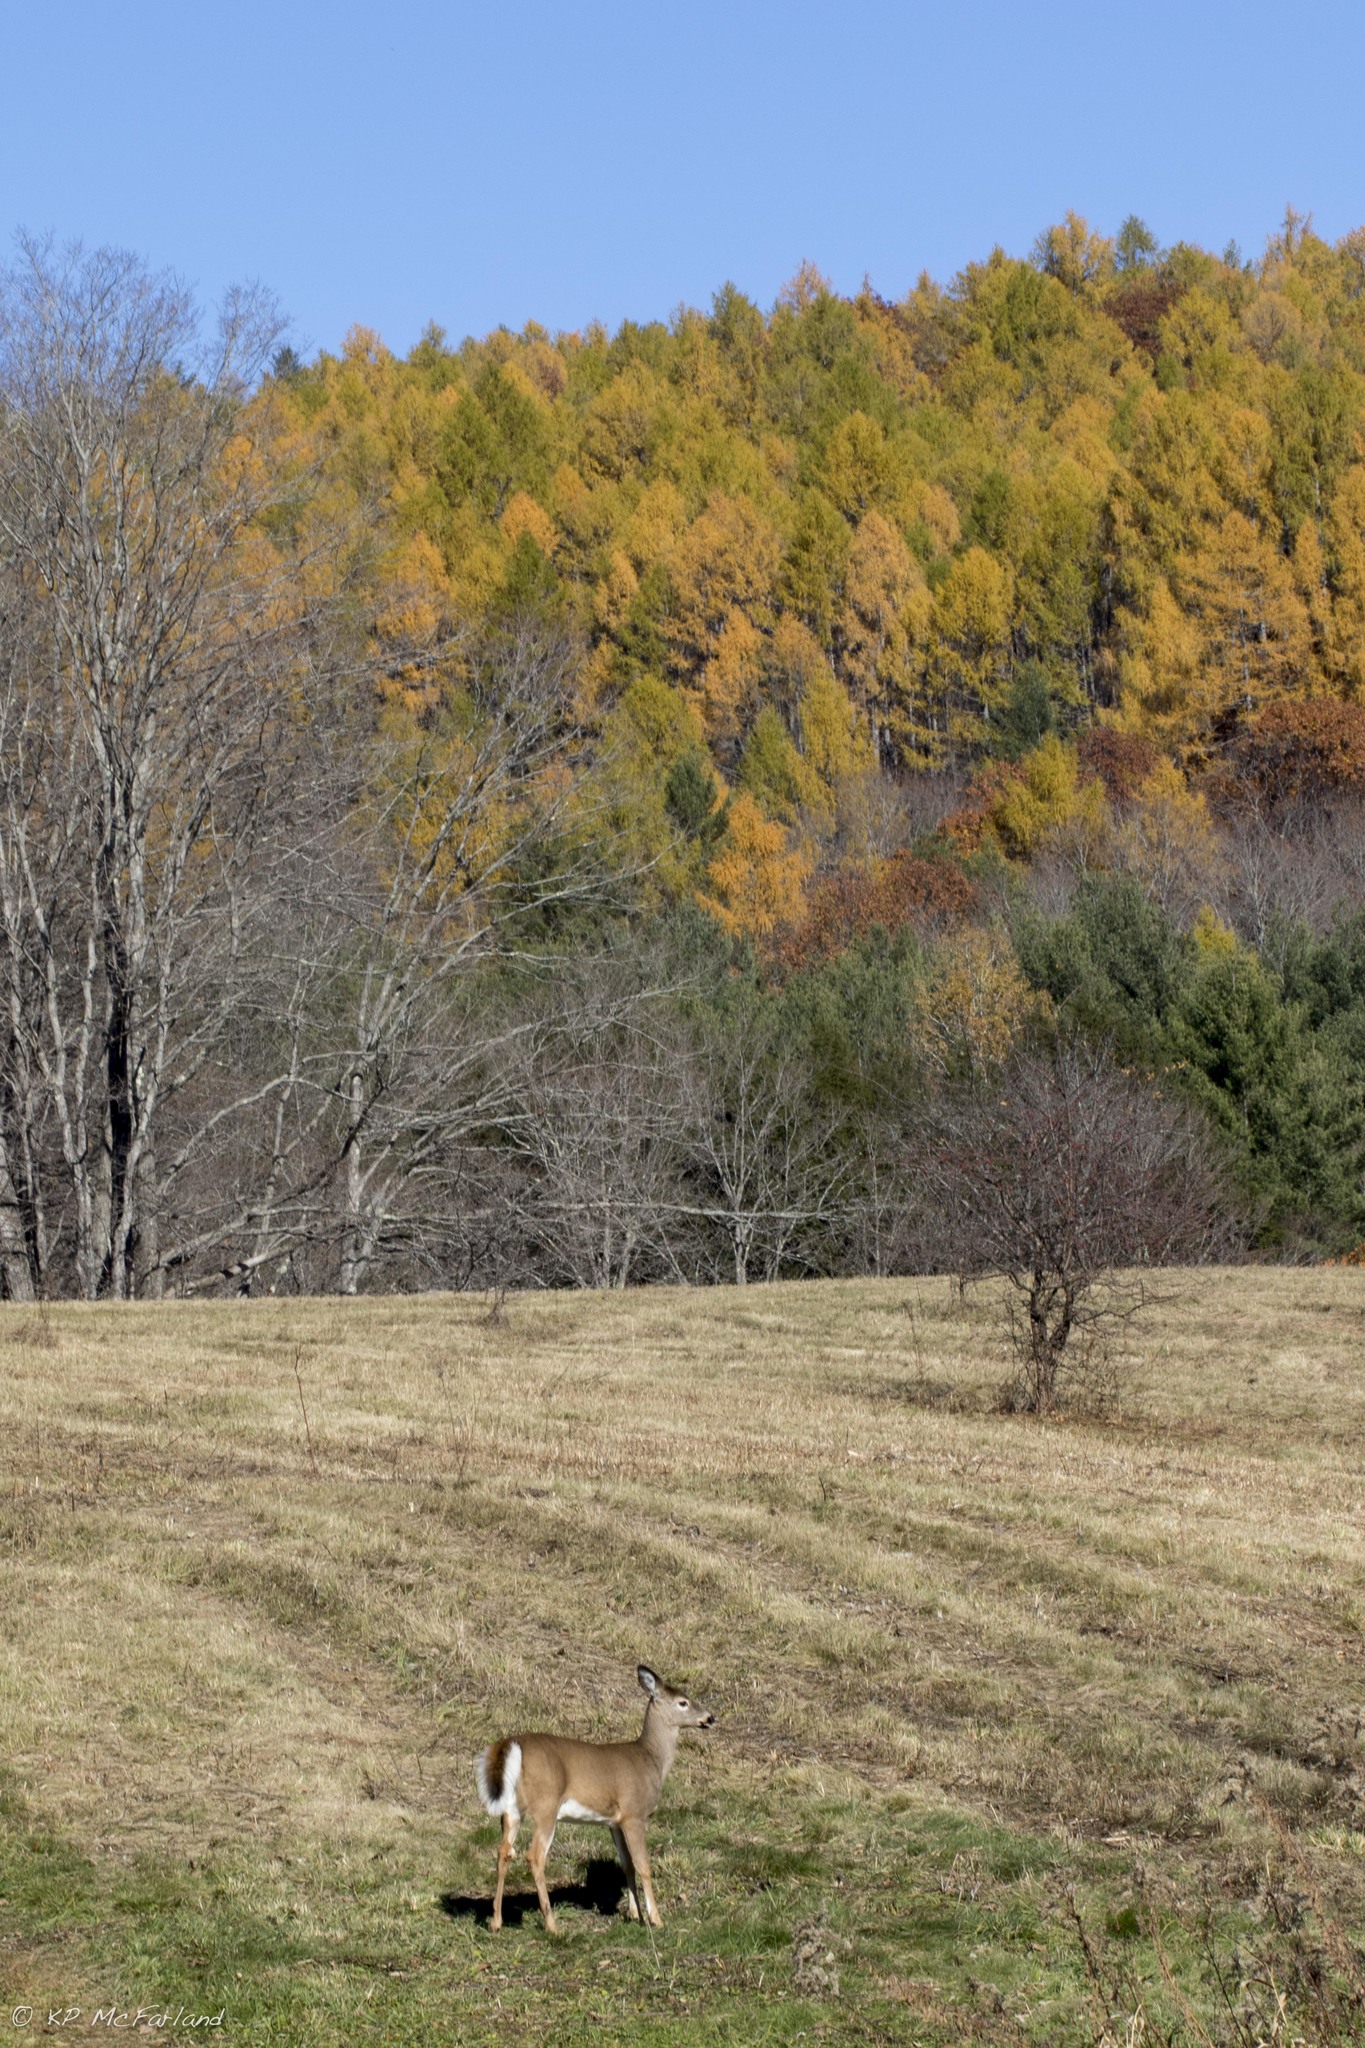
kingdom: Animalia
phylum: Chordata
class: Mammalia
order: Artiodactyla
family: Cervidae
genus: Odocoileus
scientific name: Odocoileus virginianus
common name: White-tailed deer
